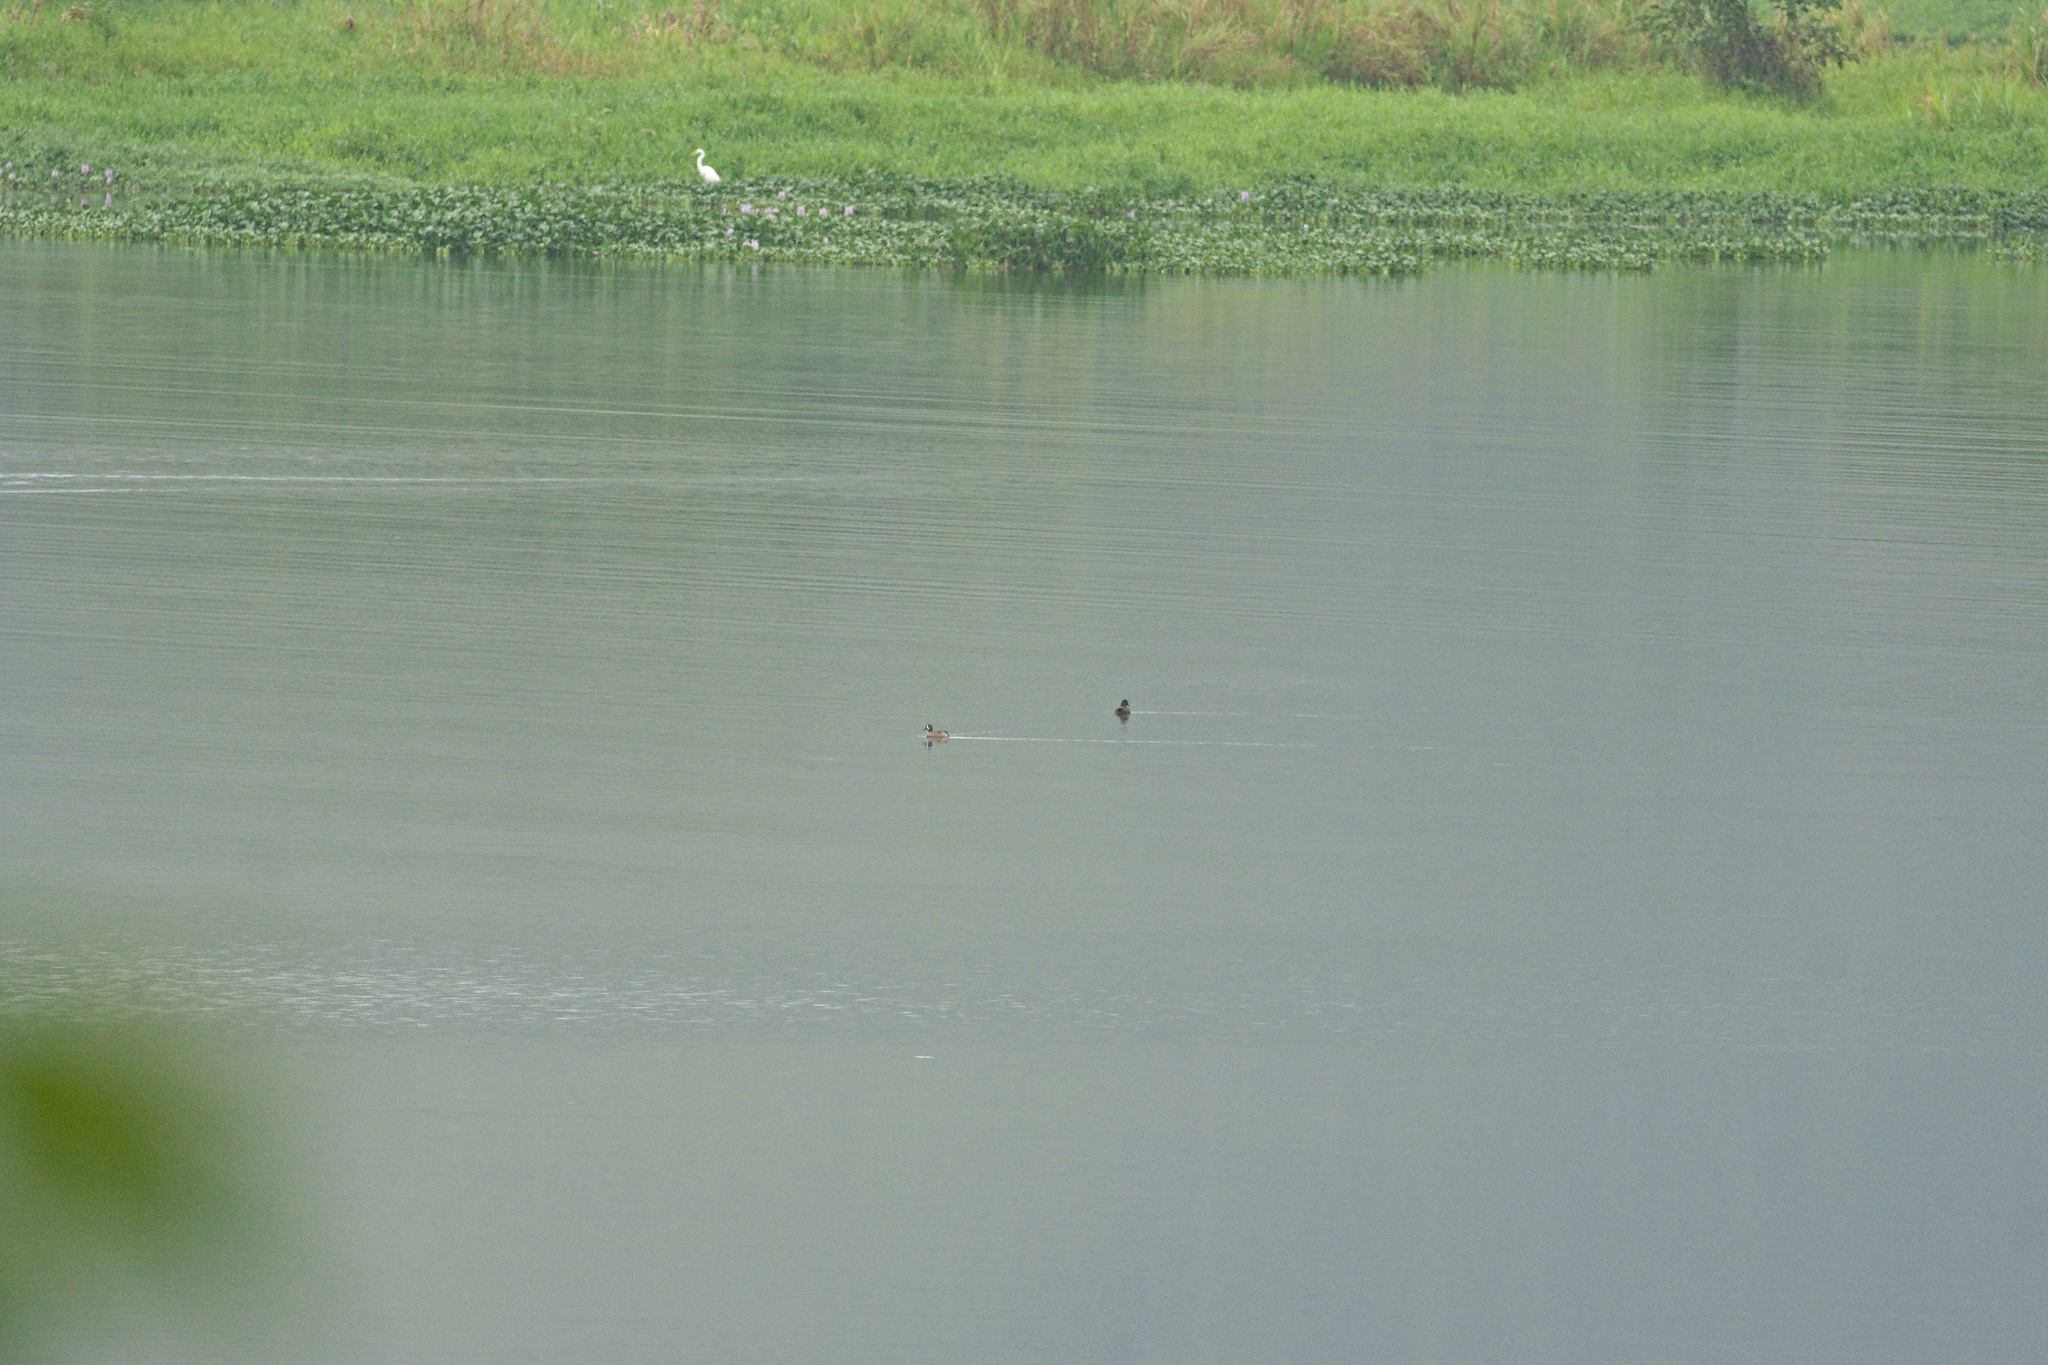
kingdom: Animalia
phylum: Chordata
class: Aves
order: Anseriformes
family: Anatidae
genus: Spatula
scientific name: Spatula discors
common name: Blue-winged teal
